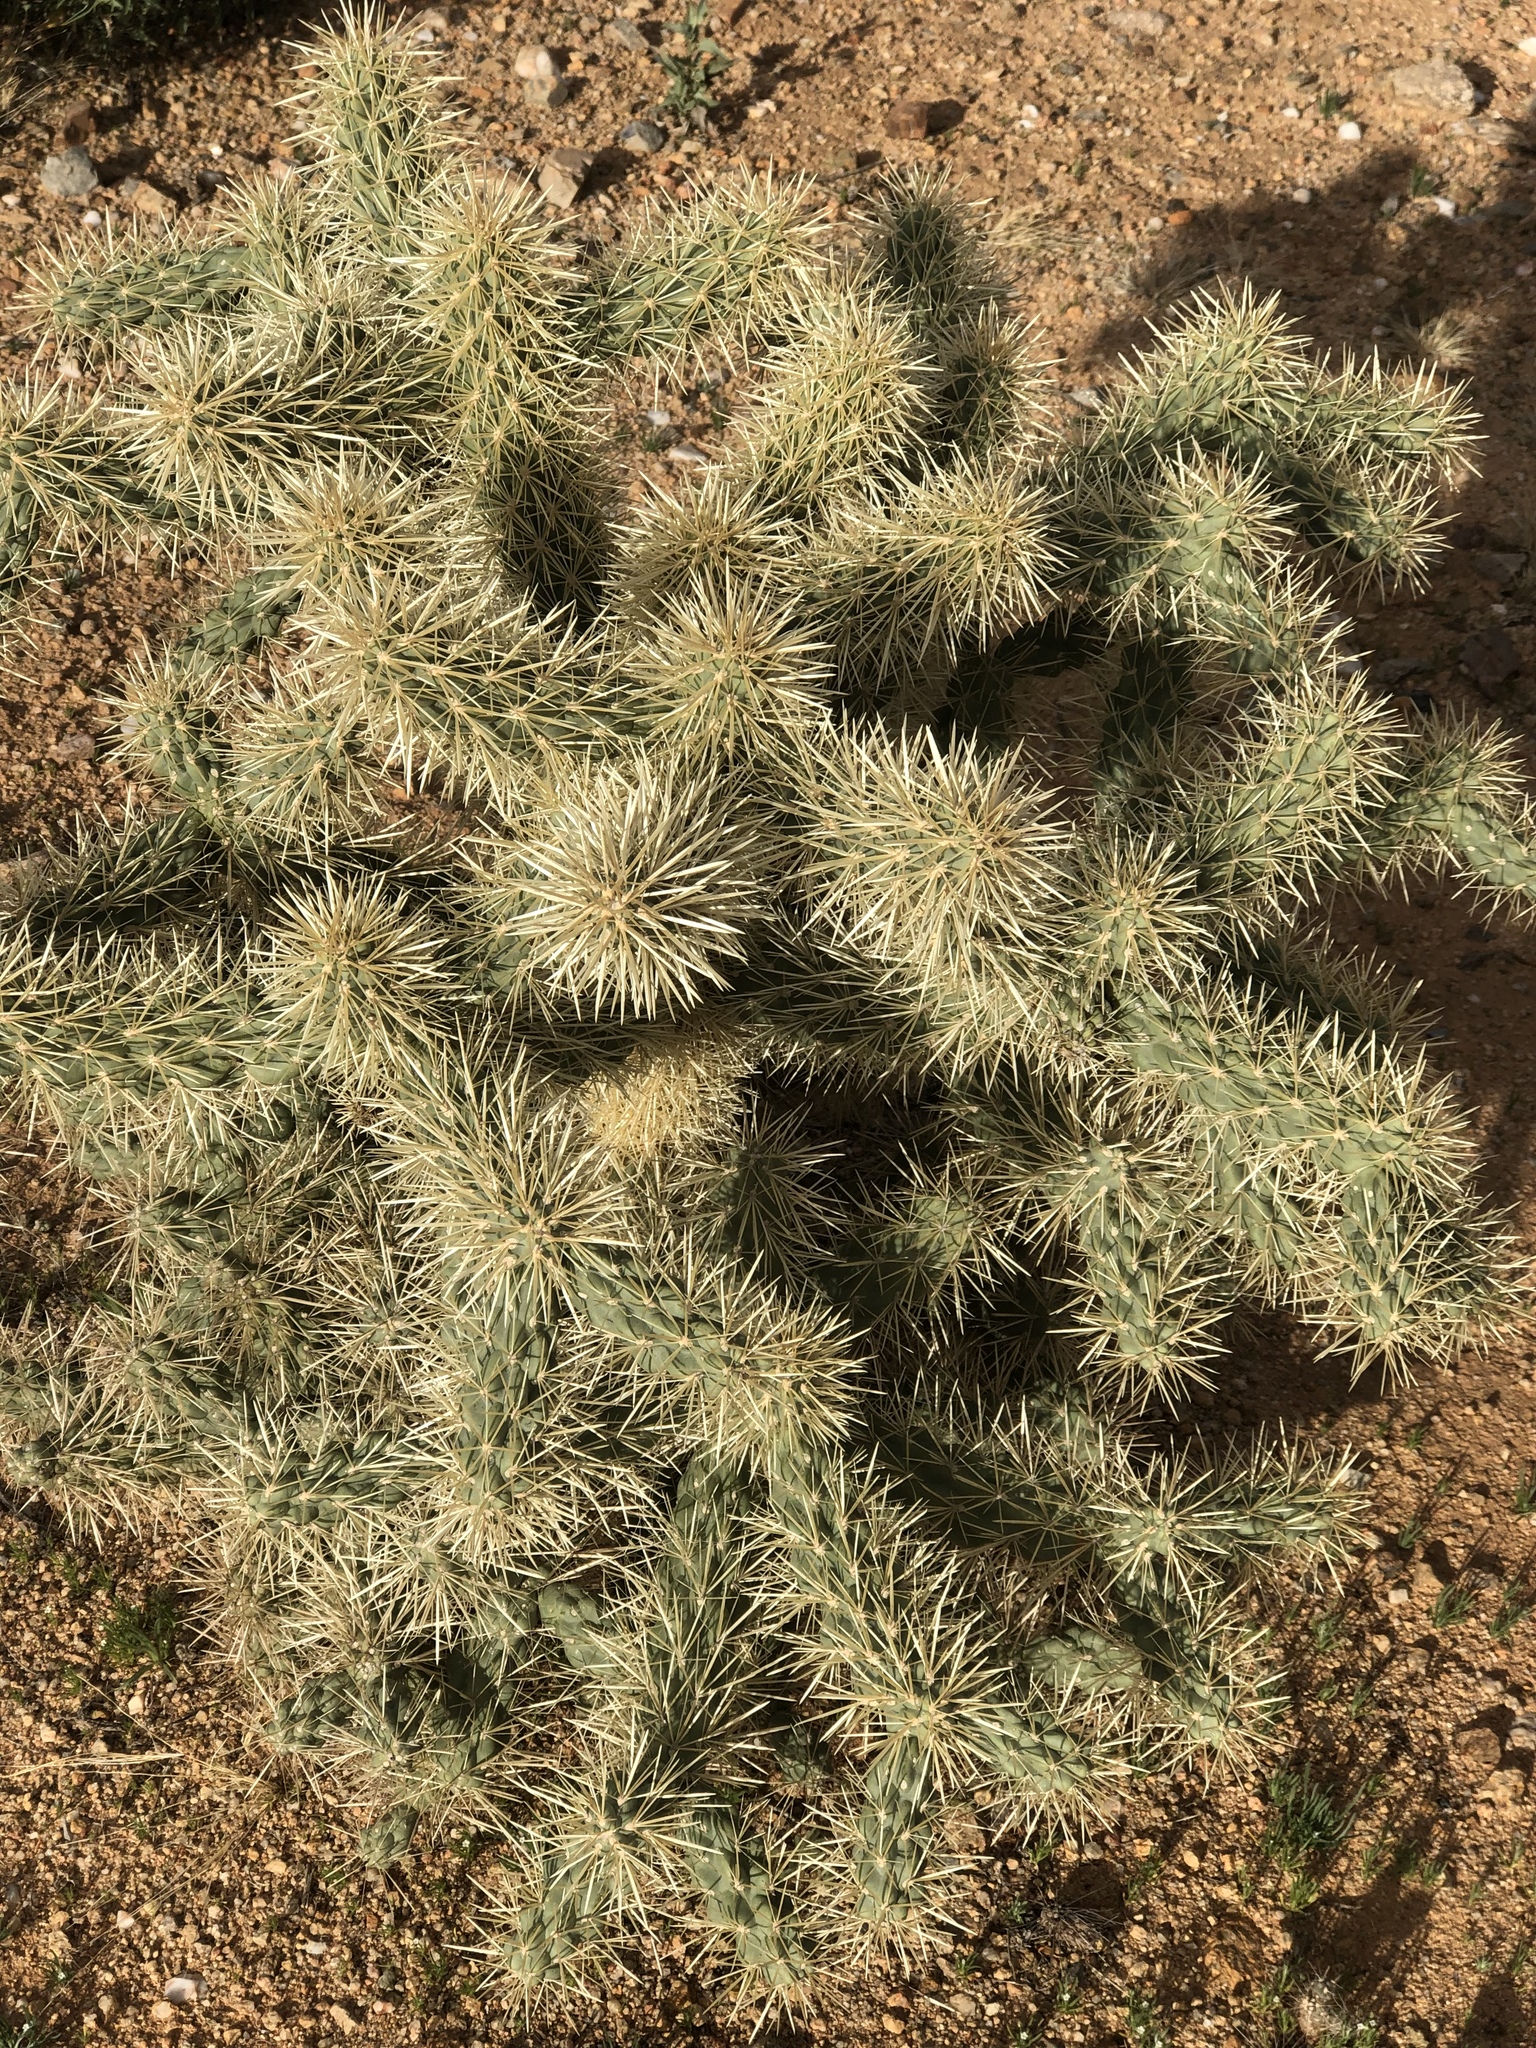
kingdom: Plantae
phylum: Tracheophyta
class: Magnoliopsida
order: Caryophyllales
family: Cactaceae
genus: Cylindropuntia
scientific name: Cylindropuntia fosbergii
